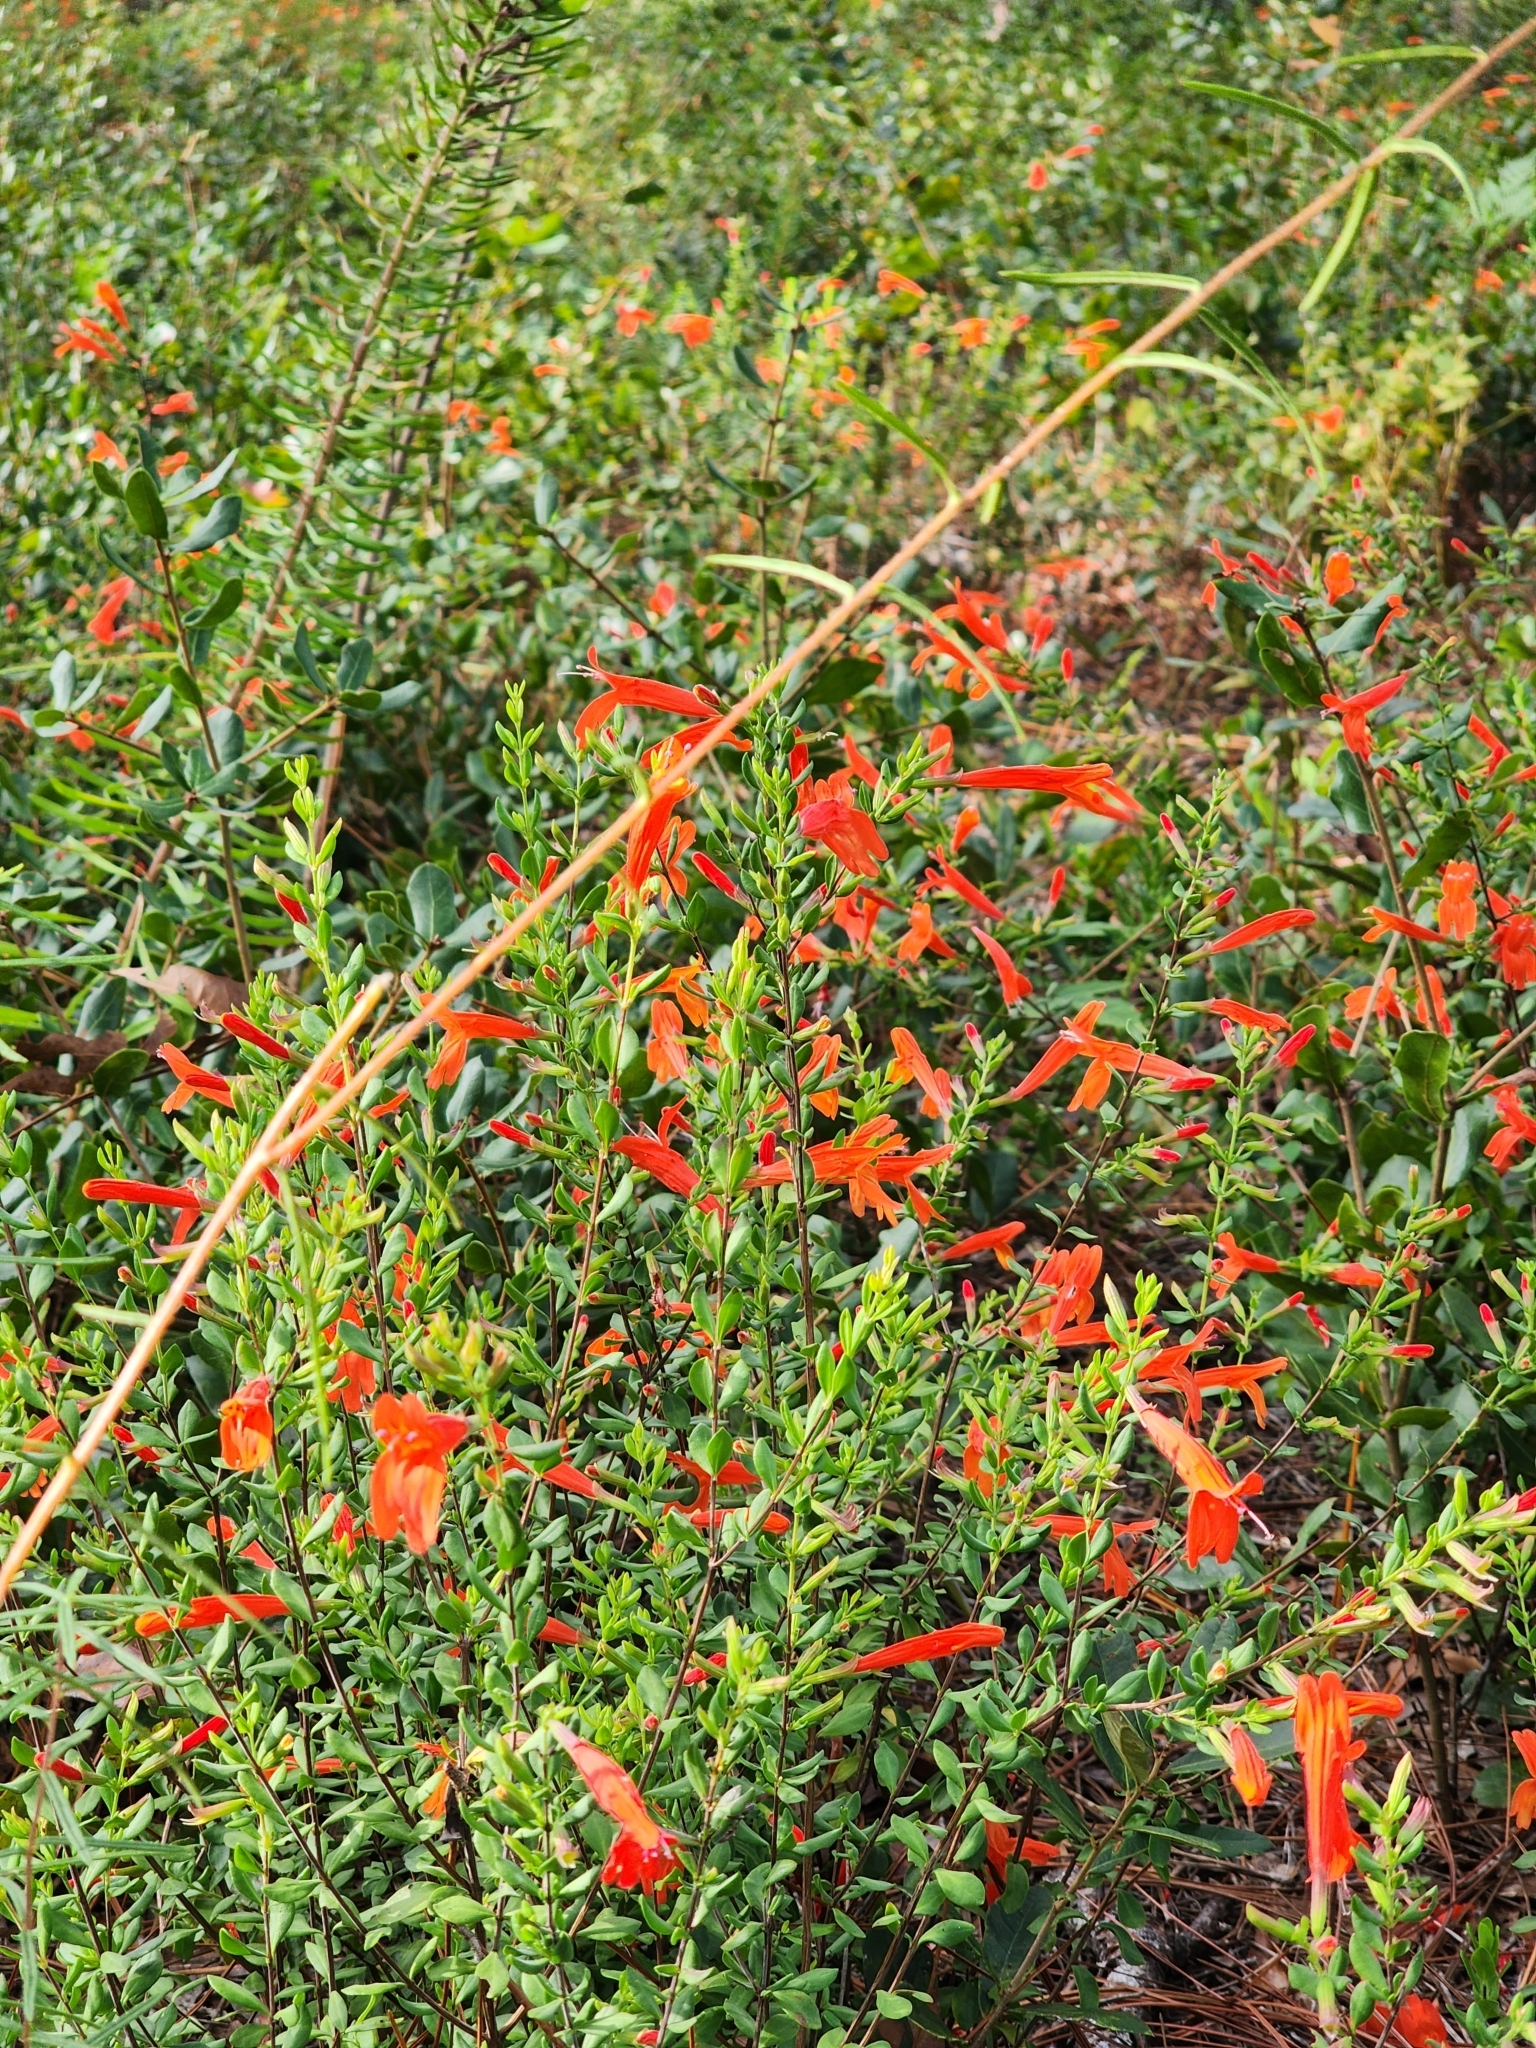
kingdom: Plantae
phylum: Tracheophyta
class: Magnoliopsida
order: Lamiales
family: Lamiaceae
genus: Clinopodium
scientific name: Clinopodium coccineum
